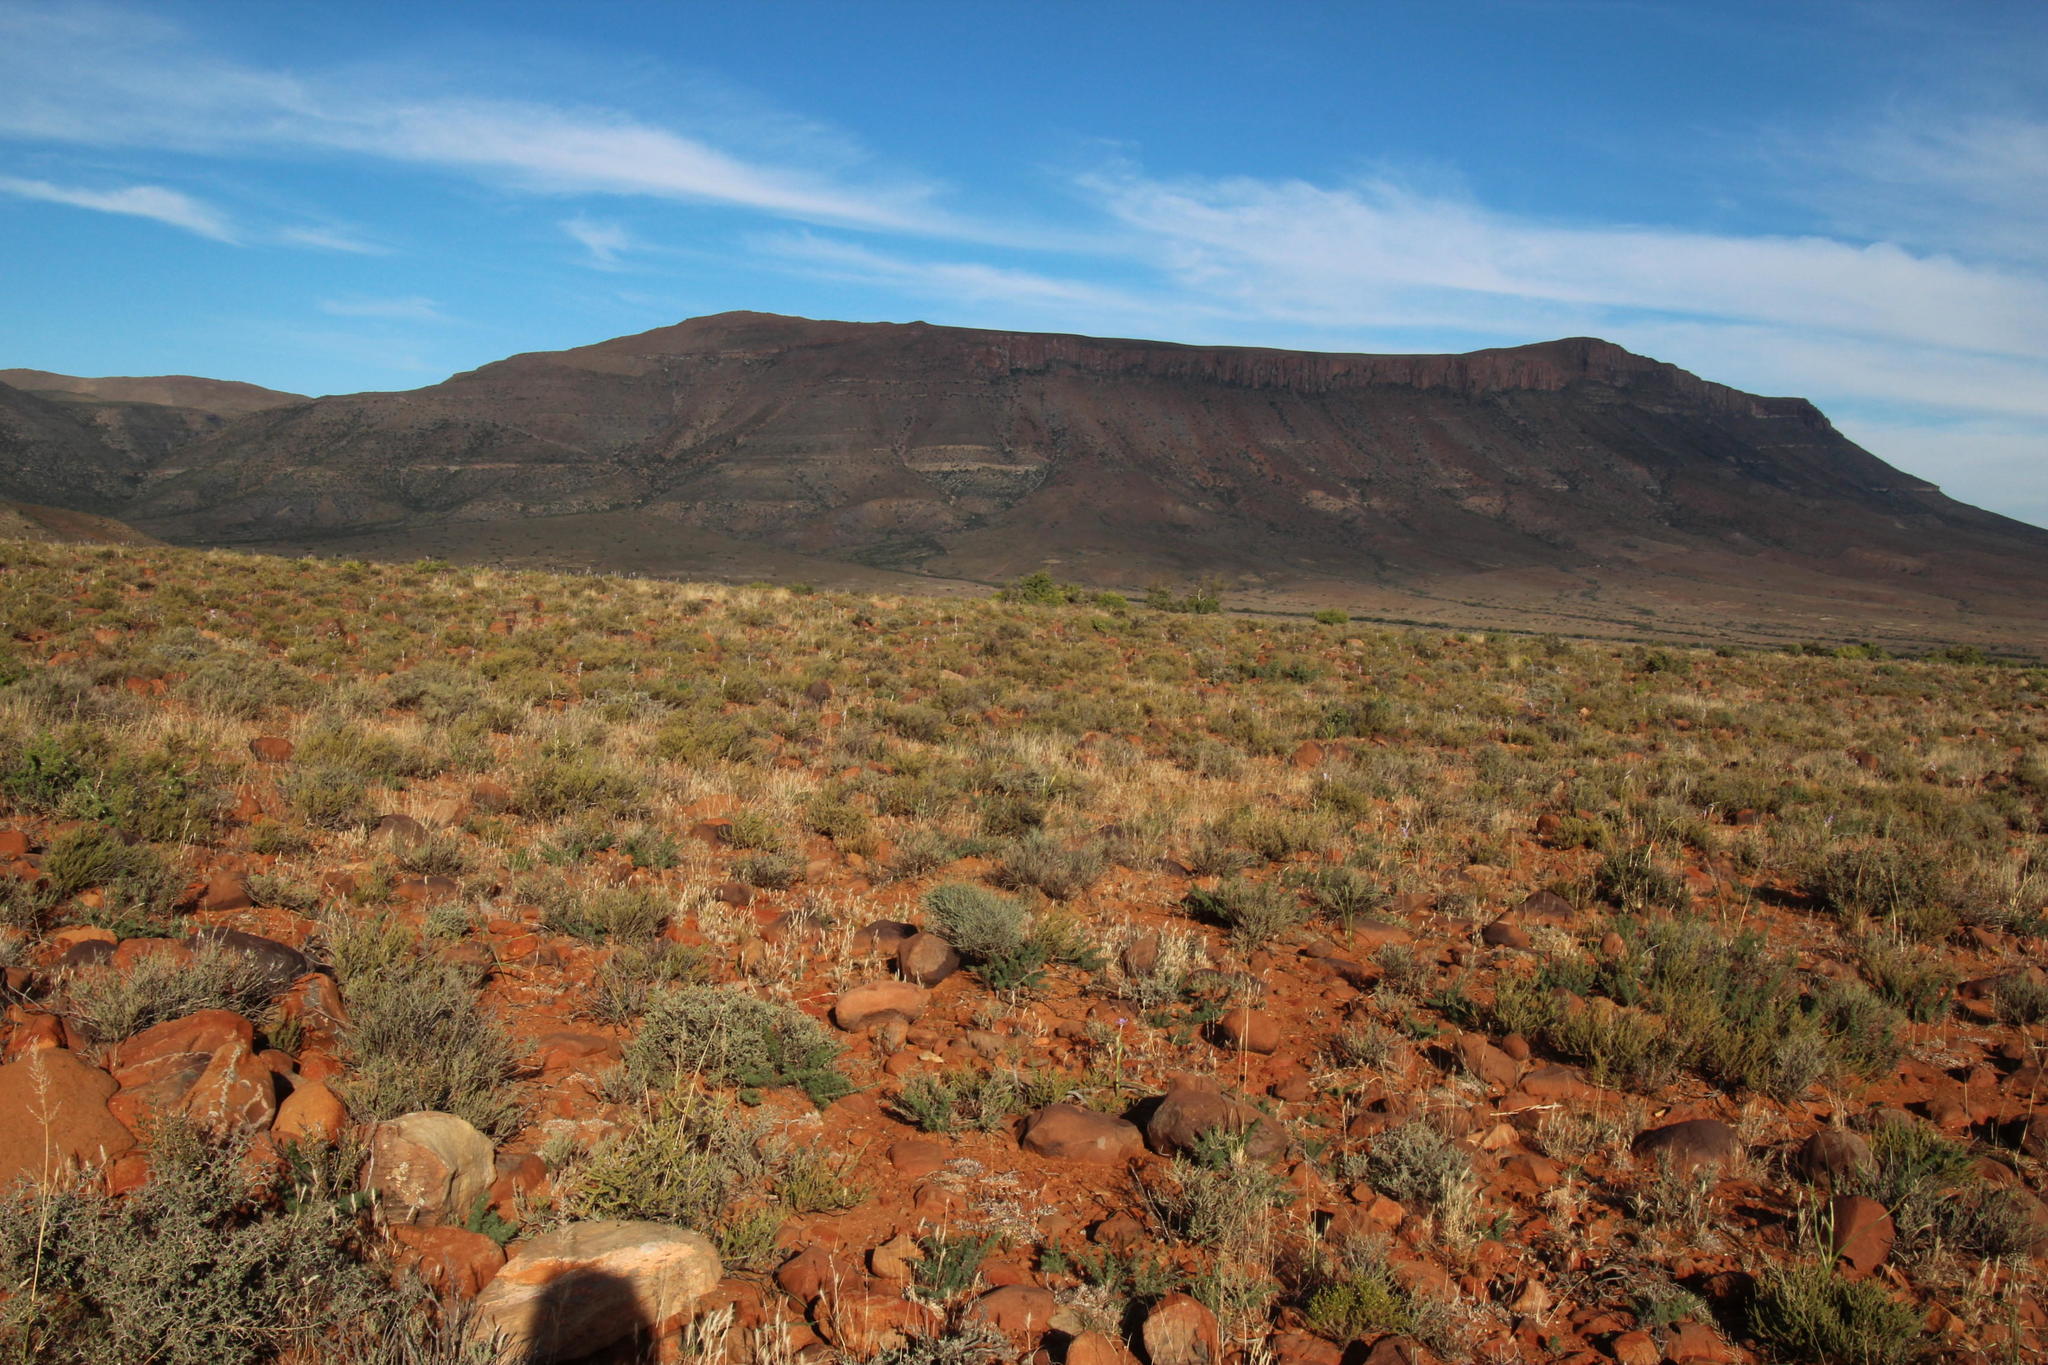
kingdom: Plantae
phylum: Tracheophyta
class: Liliopsida
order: Asparagales
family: Iridaceae
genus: Moraea
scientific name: Moraea polystachya
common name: Blue-tulip
